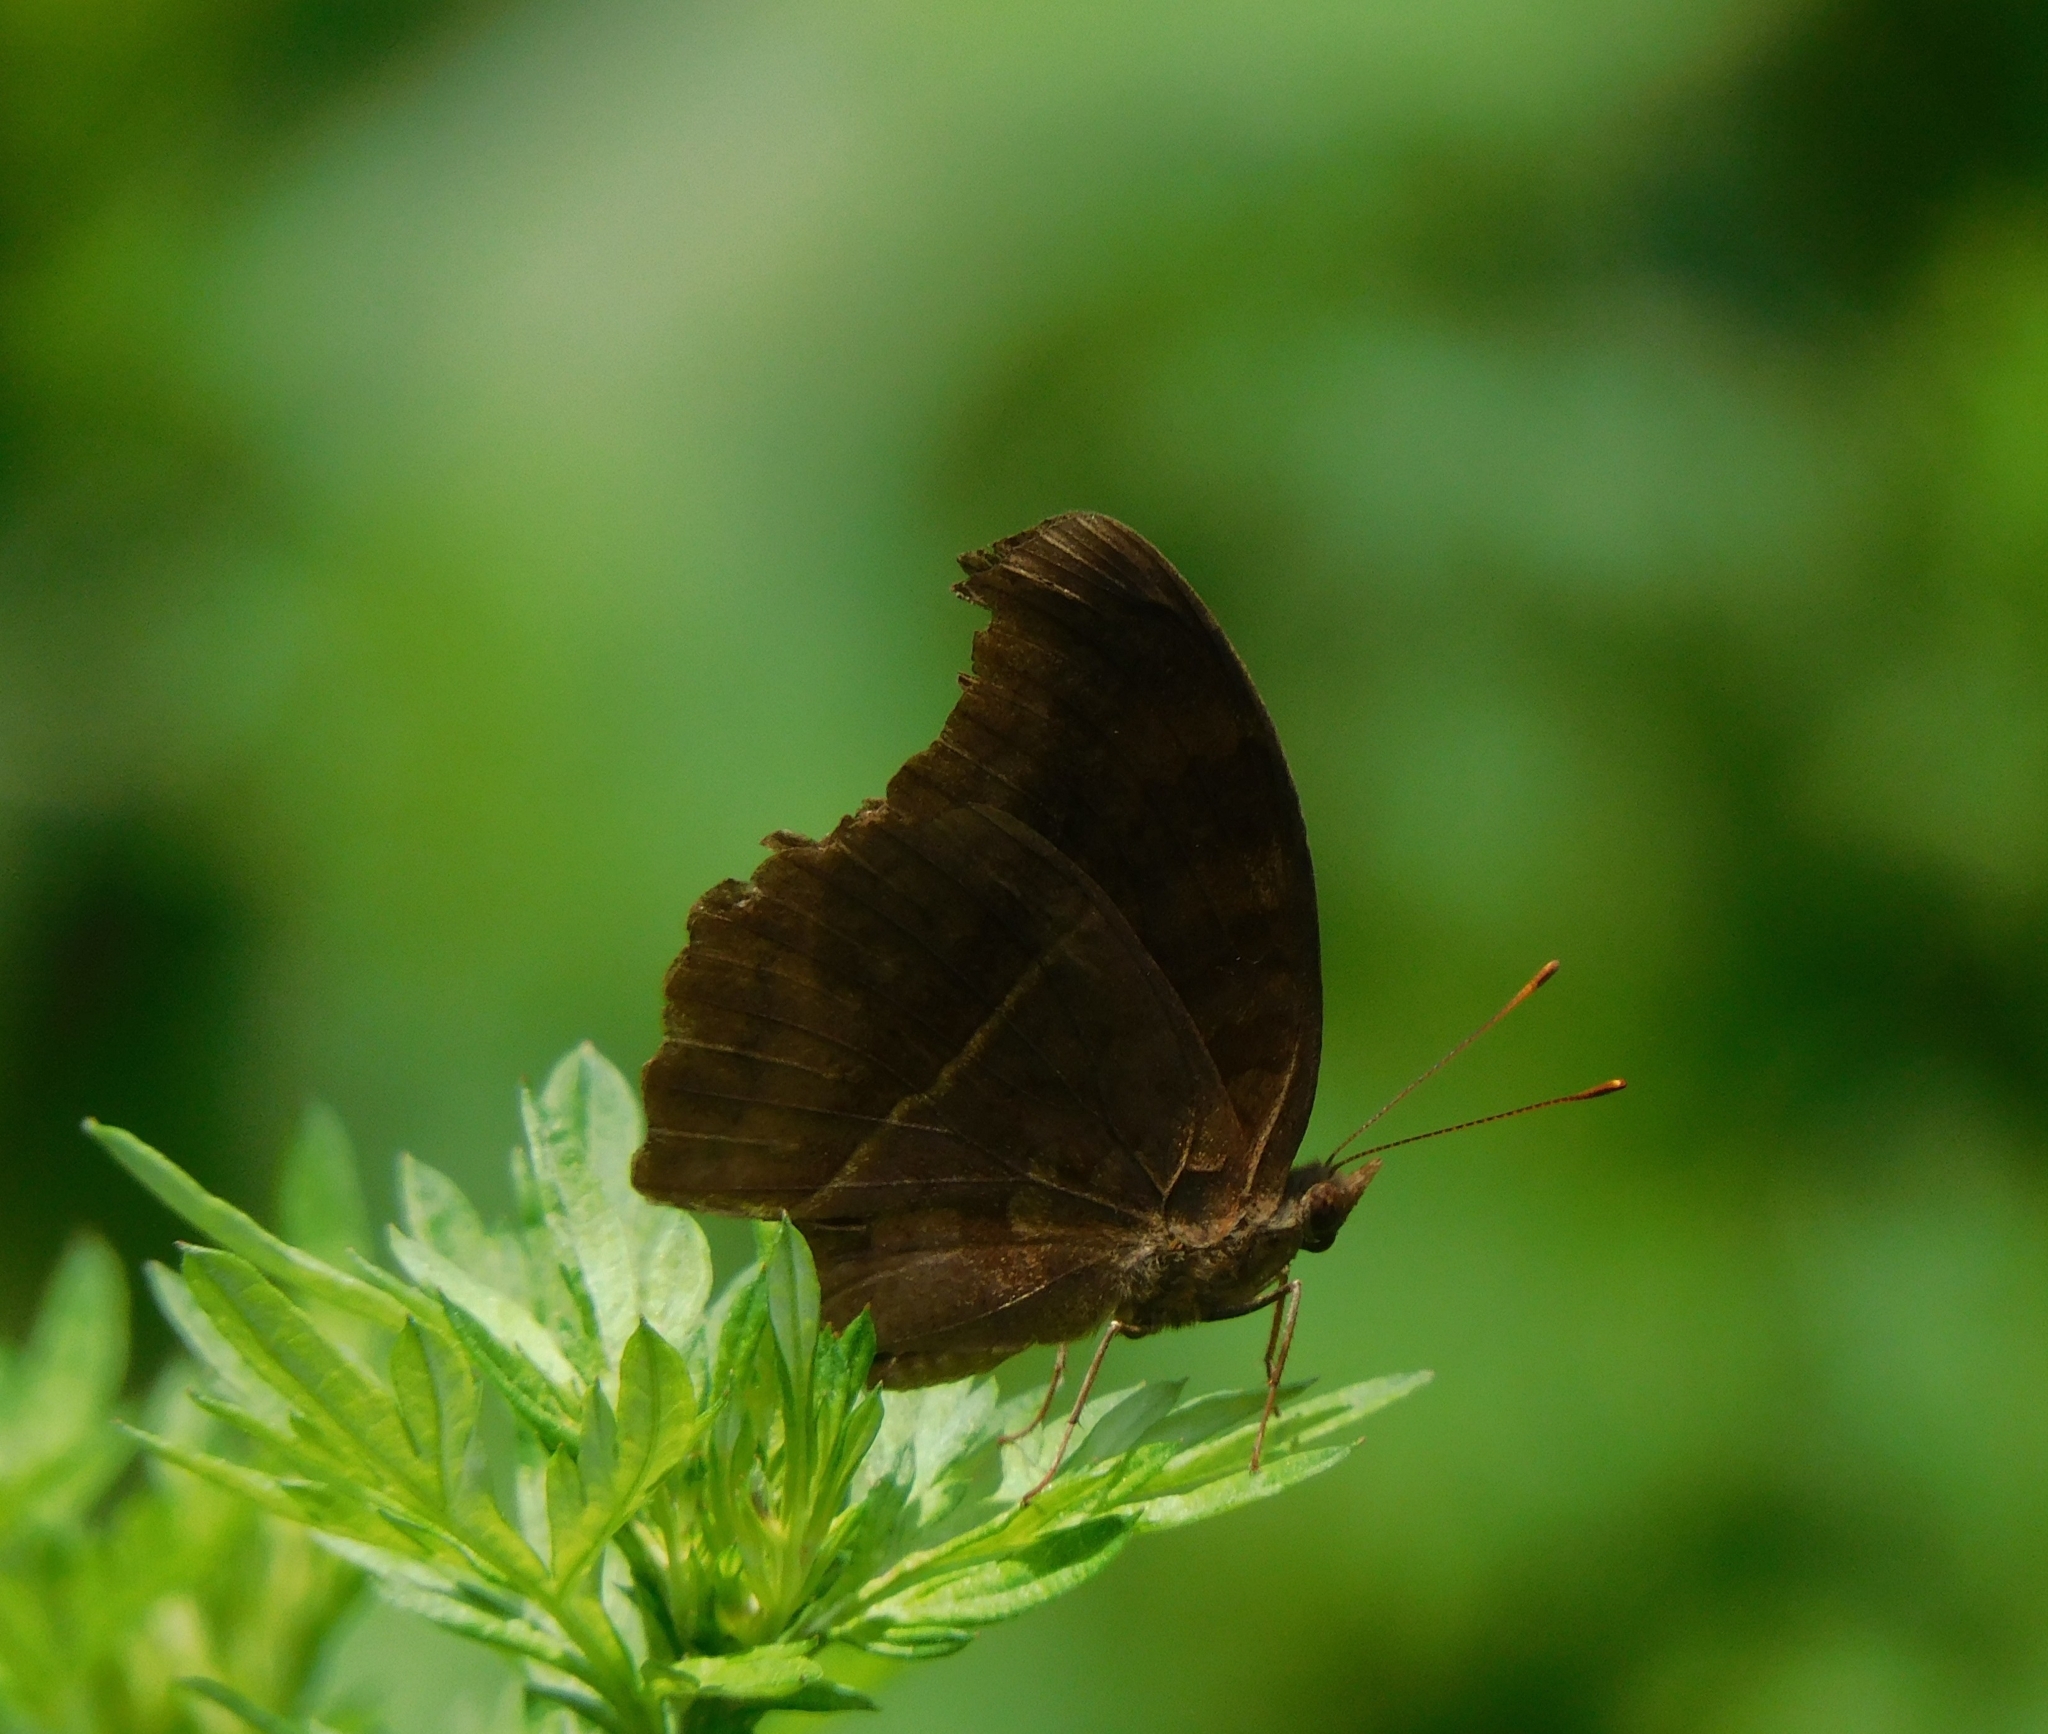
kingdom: Animalia
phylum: Arthropoda
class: Insecta
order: Lepidoptera
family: Nymphalidae
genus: Junonia
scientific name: Junonia iphita
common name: Chocolate pansy
